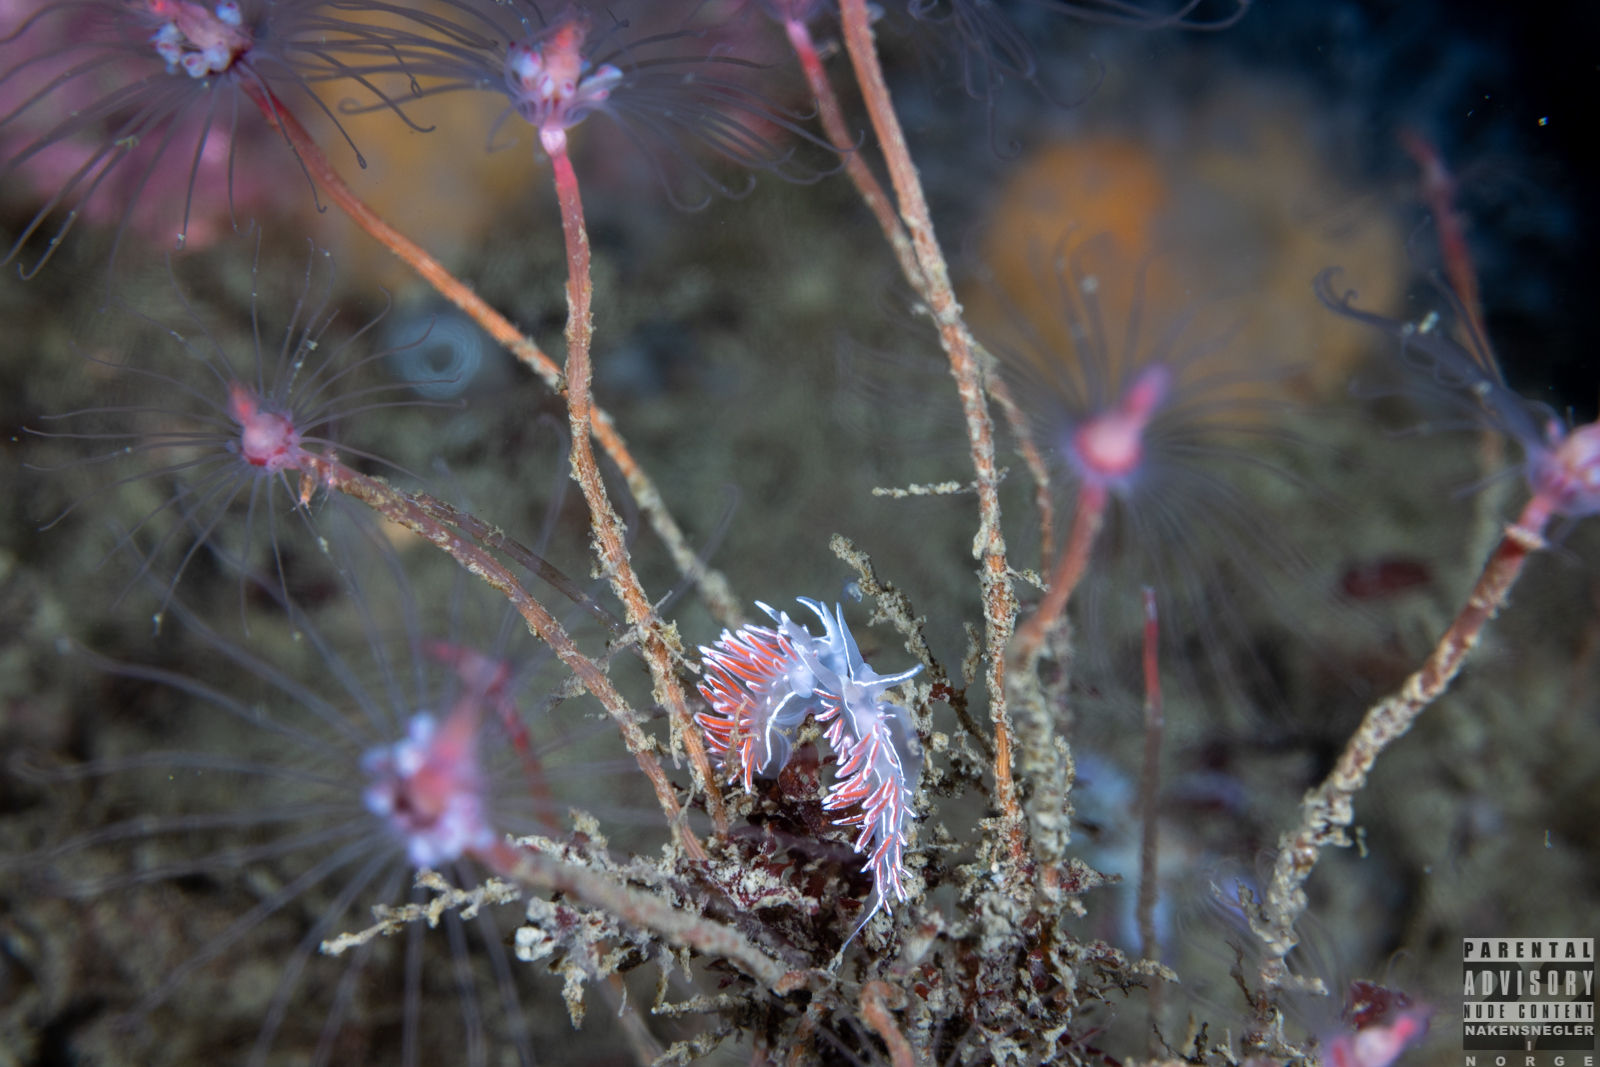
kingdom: Animalia
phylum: Mollusca
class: Gastropoda
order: Nudibranchia
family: Coryphellidae
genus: Coryphella
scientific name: Coryphella lineata
